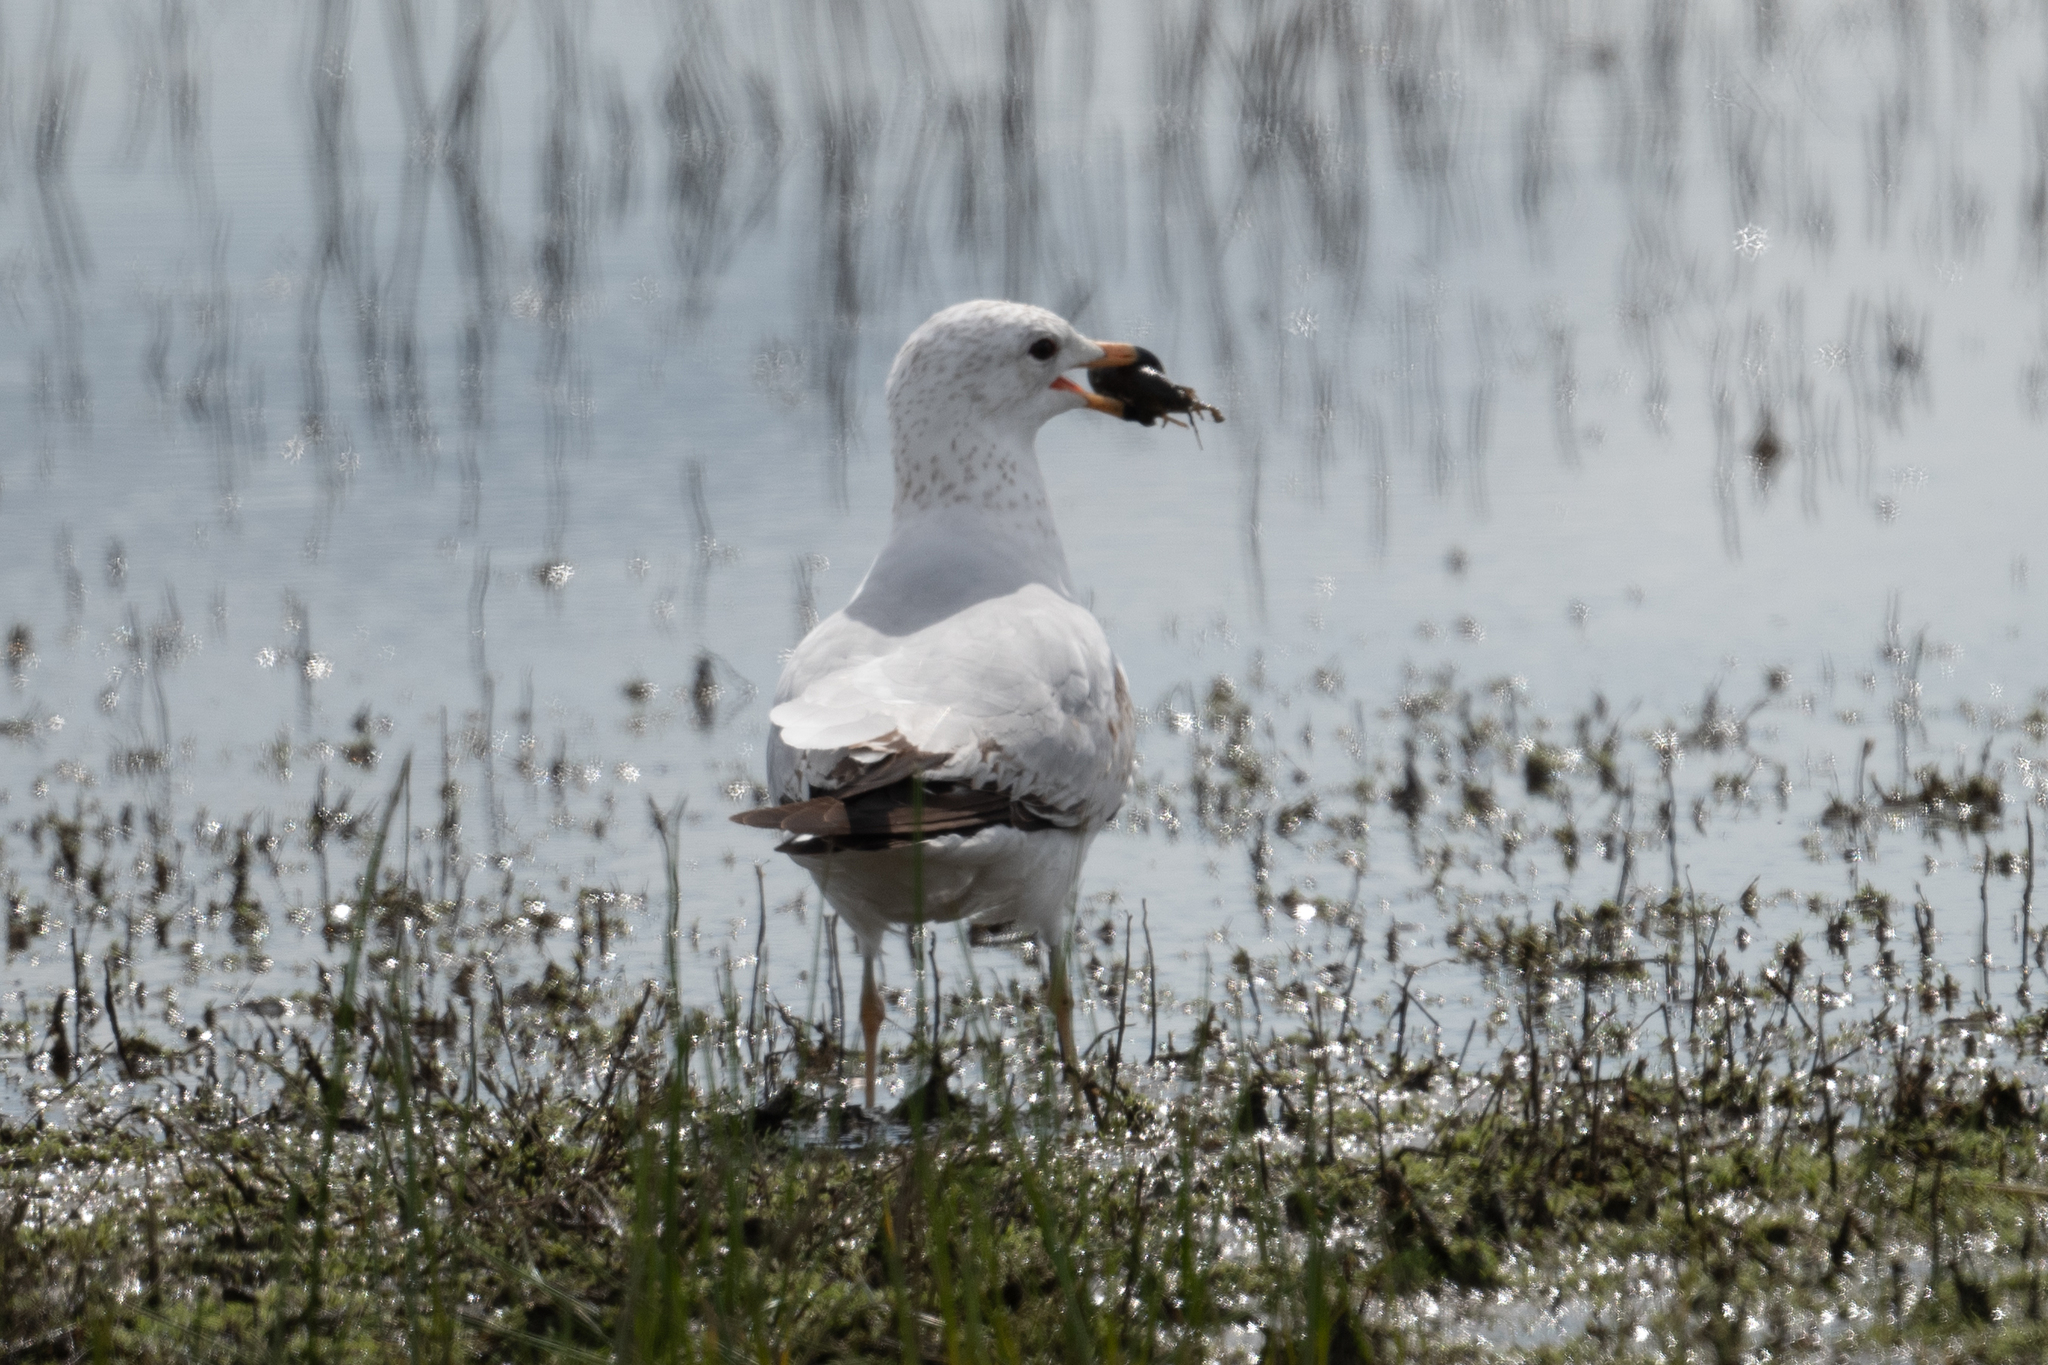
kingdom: Animalia
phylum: Chordata
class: Aves
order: Charadriiformes
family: Laridae
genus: Larus
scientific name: Larus delawarensis
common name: Ring-billed gull
